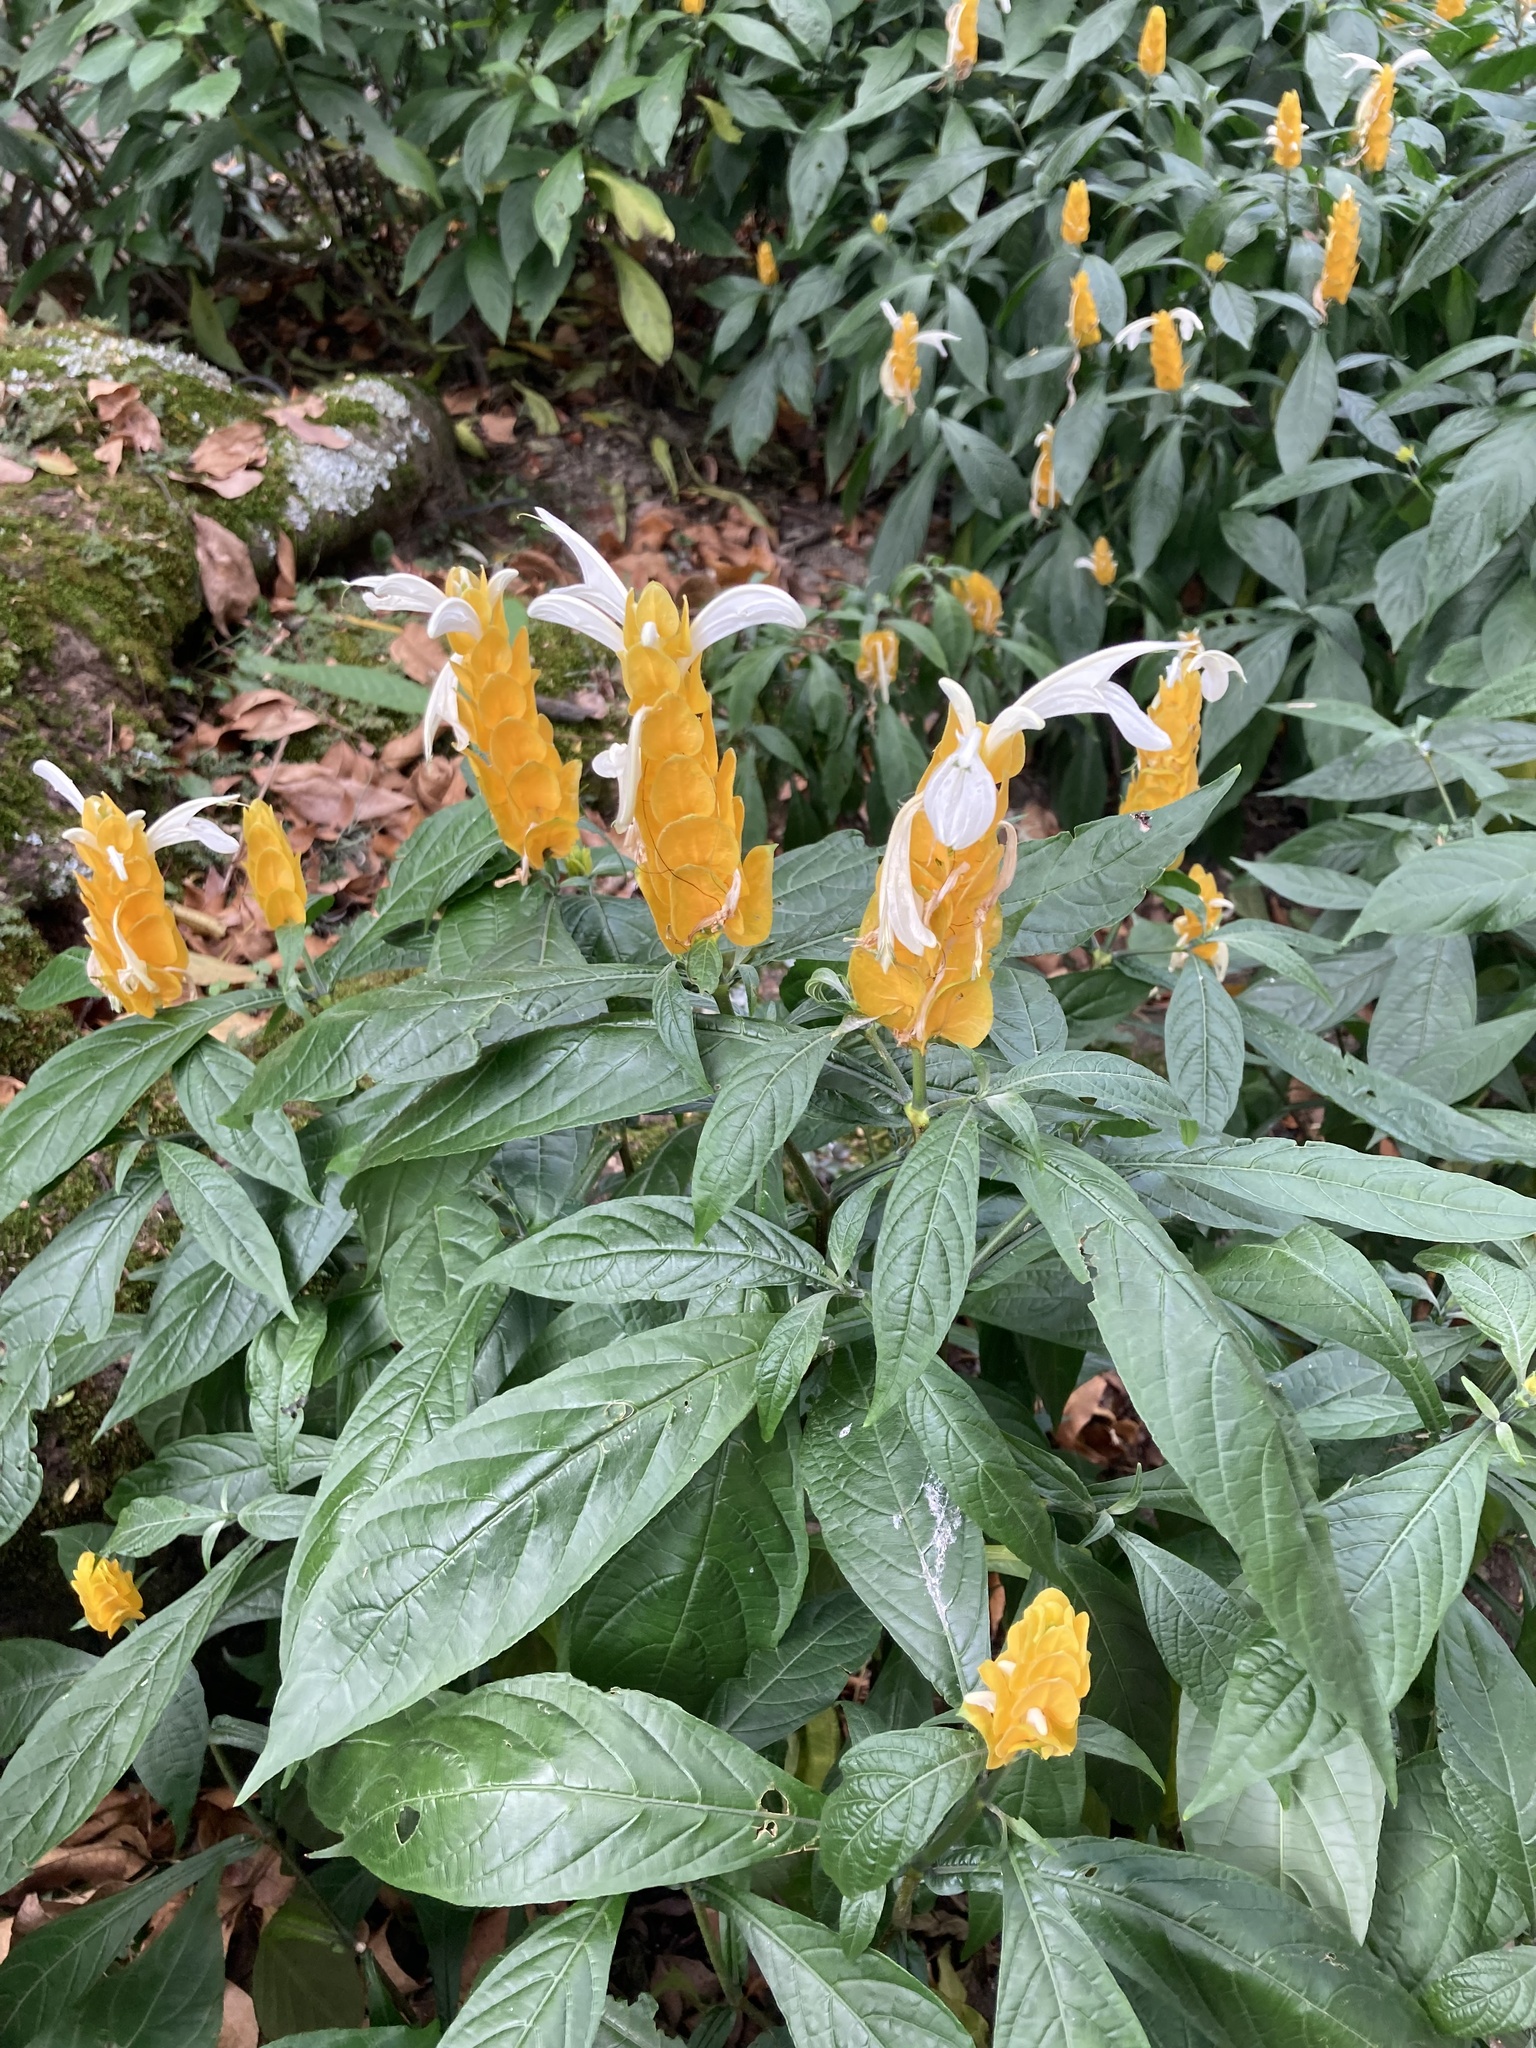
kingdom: Plantae
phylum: Tracheophyta
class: Magnoliopsida
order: Lamiales
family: Acanthaceae
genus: Pachystachys
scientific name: Pachystachys lutea
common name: Golden shrimp-plant
